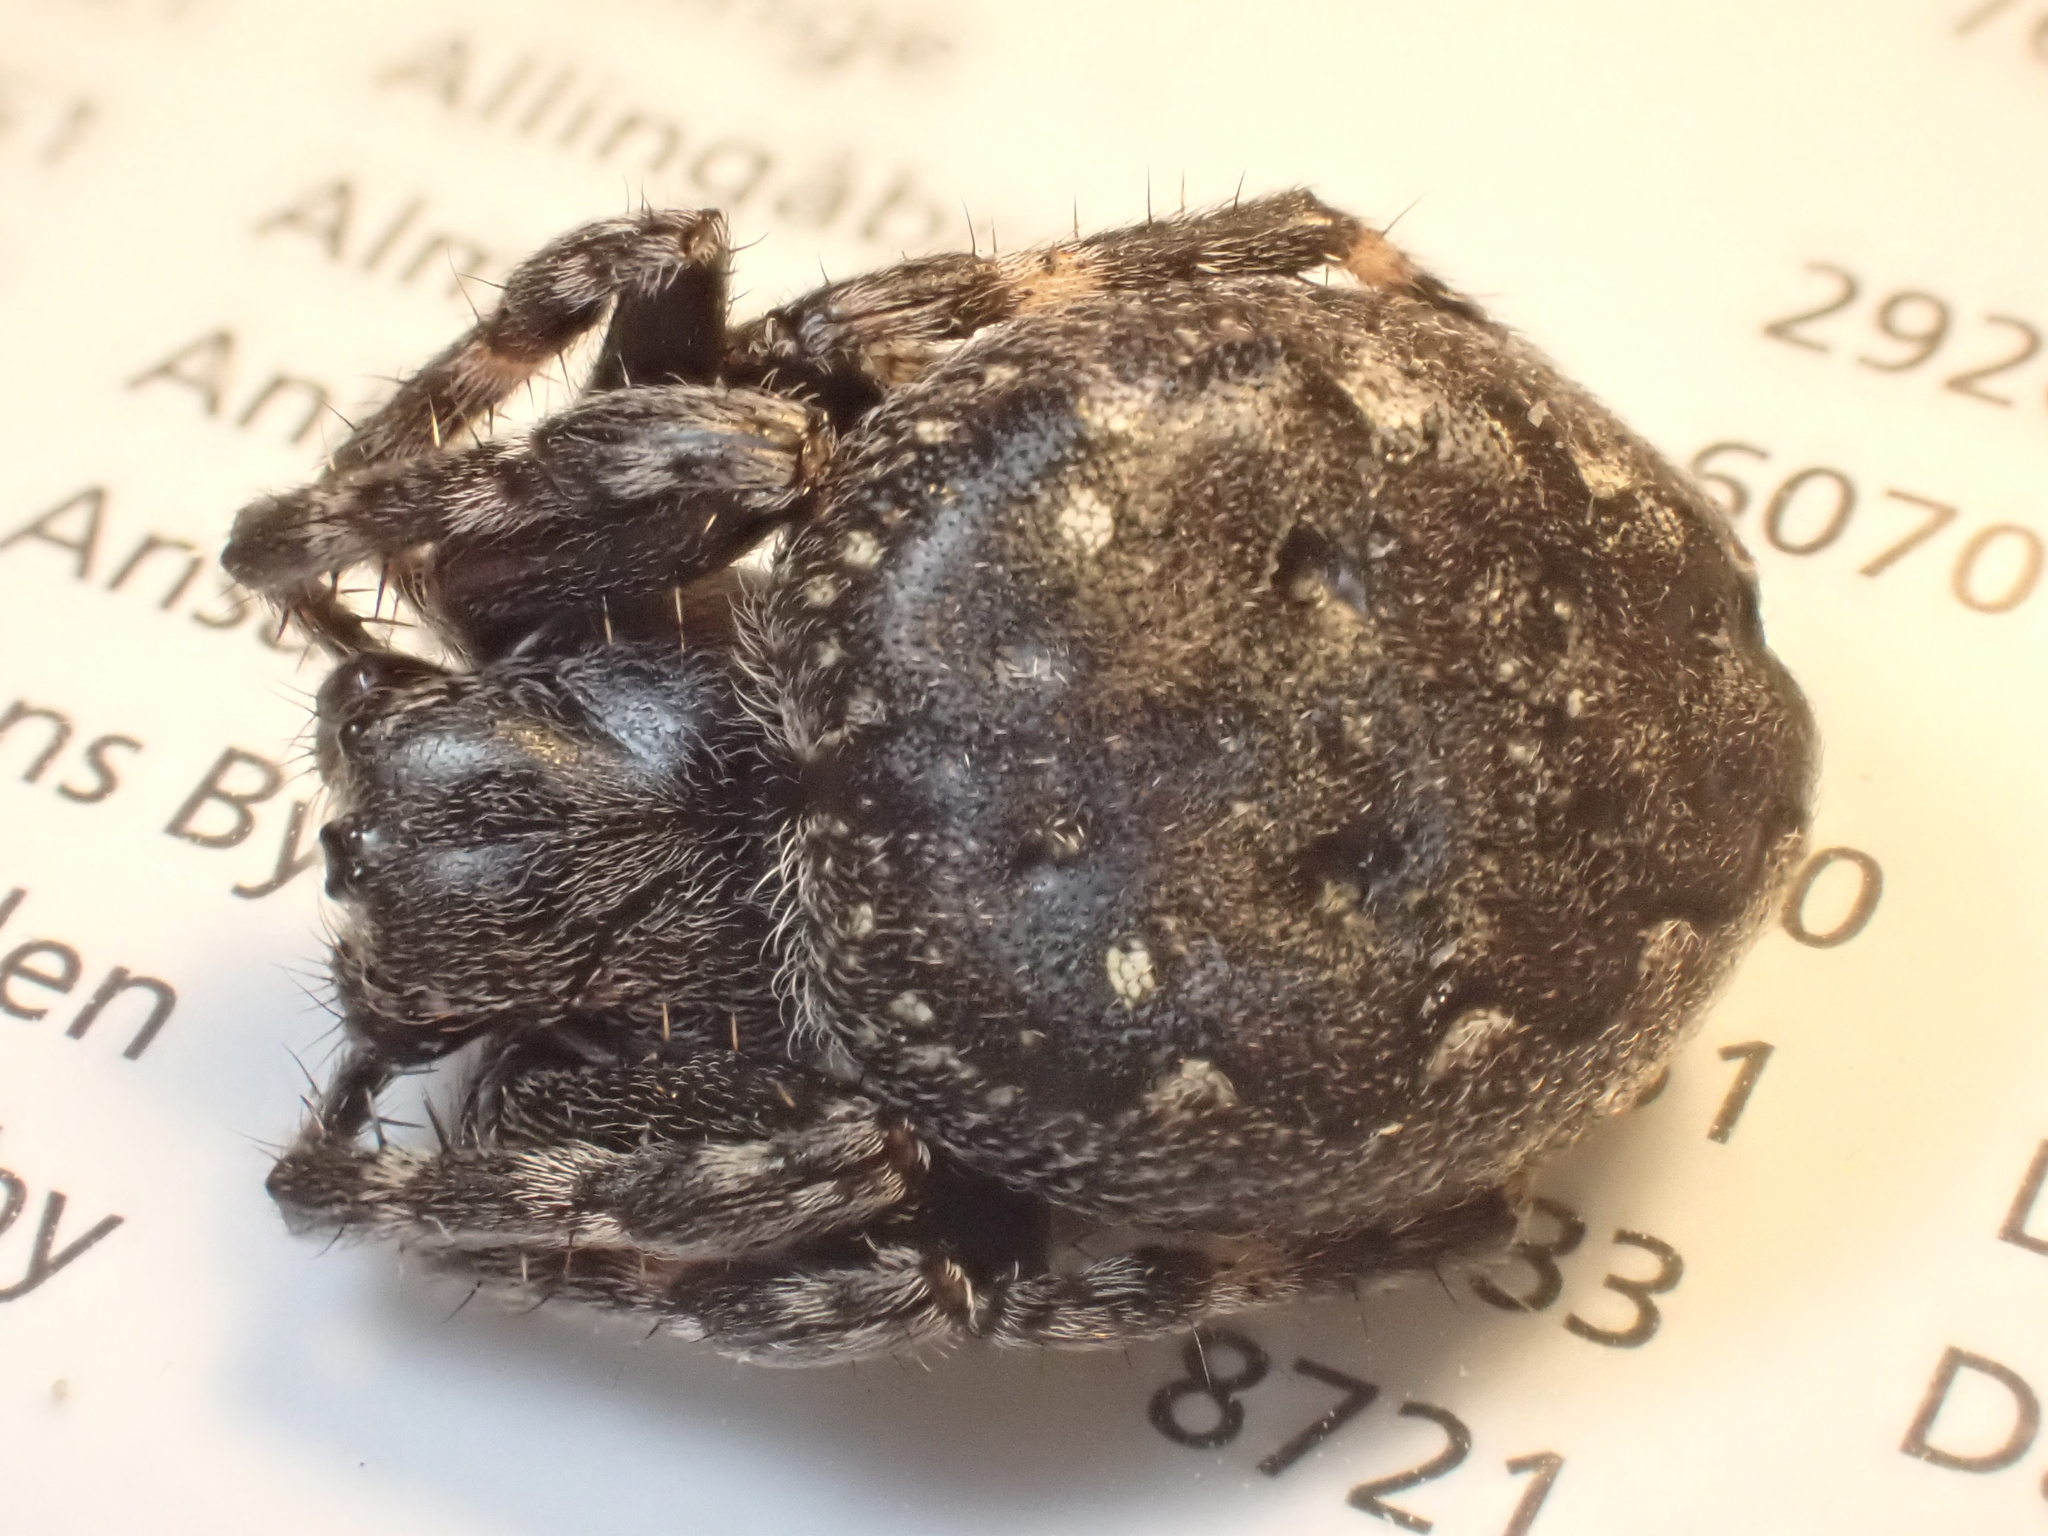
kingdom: Animalia
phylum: Arthropoda
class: Arachnida
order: Araneae
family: Araneidae
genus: Nuctenea
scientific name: Nuctenea umbratica
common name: Toad spider
